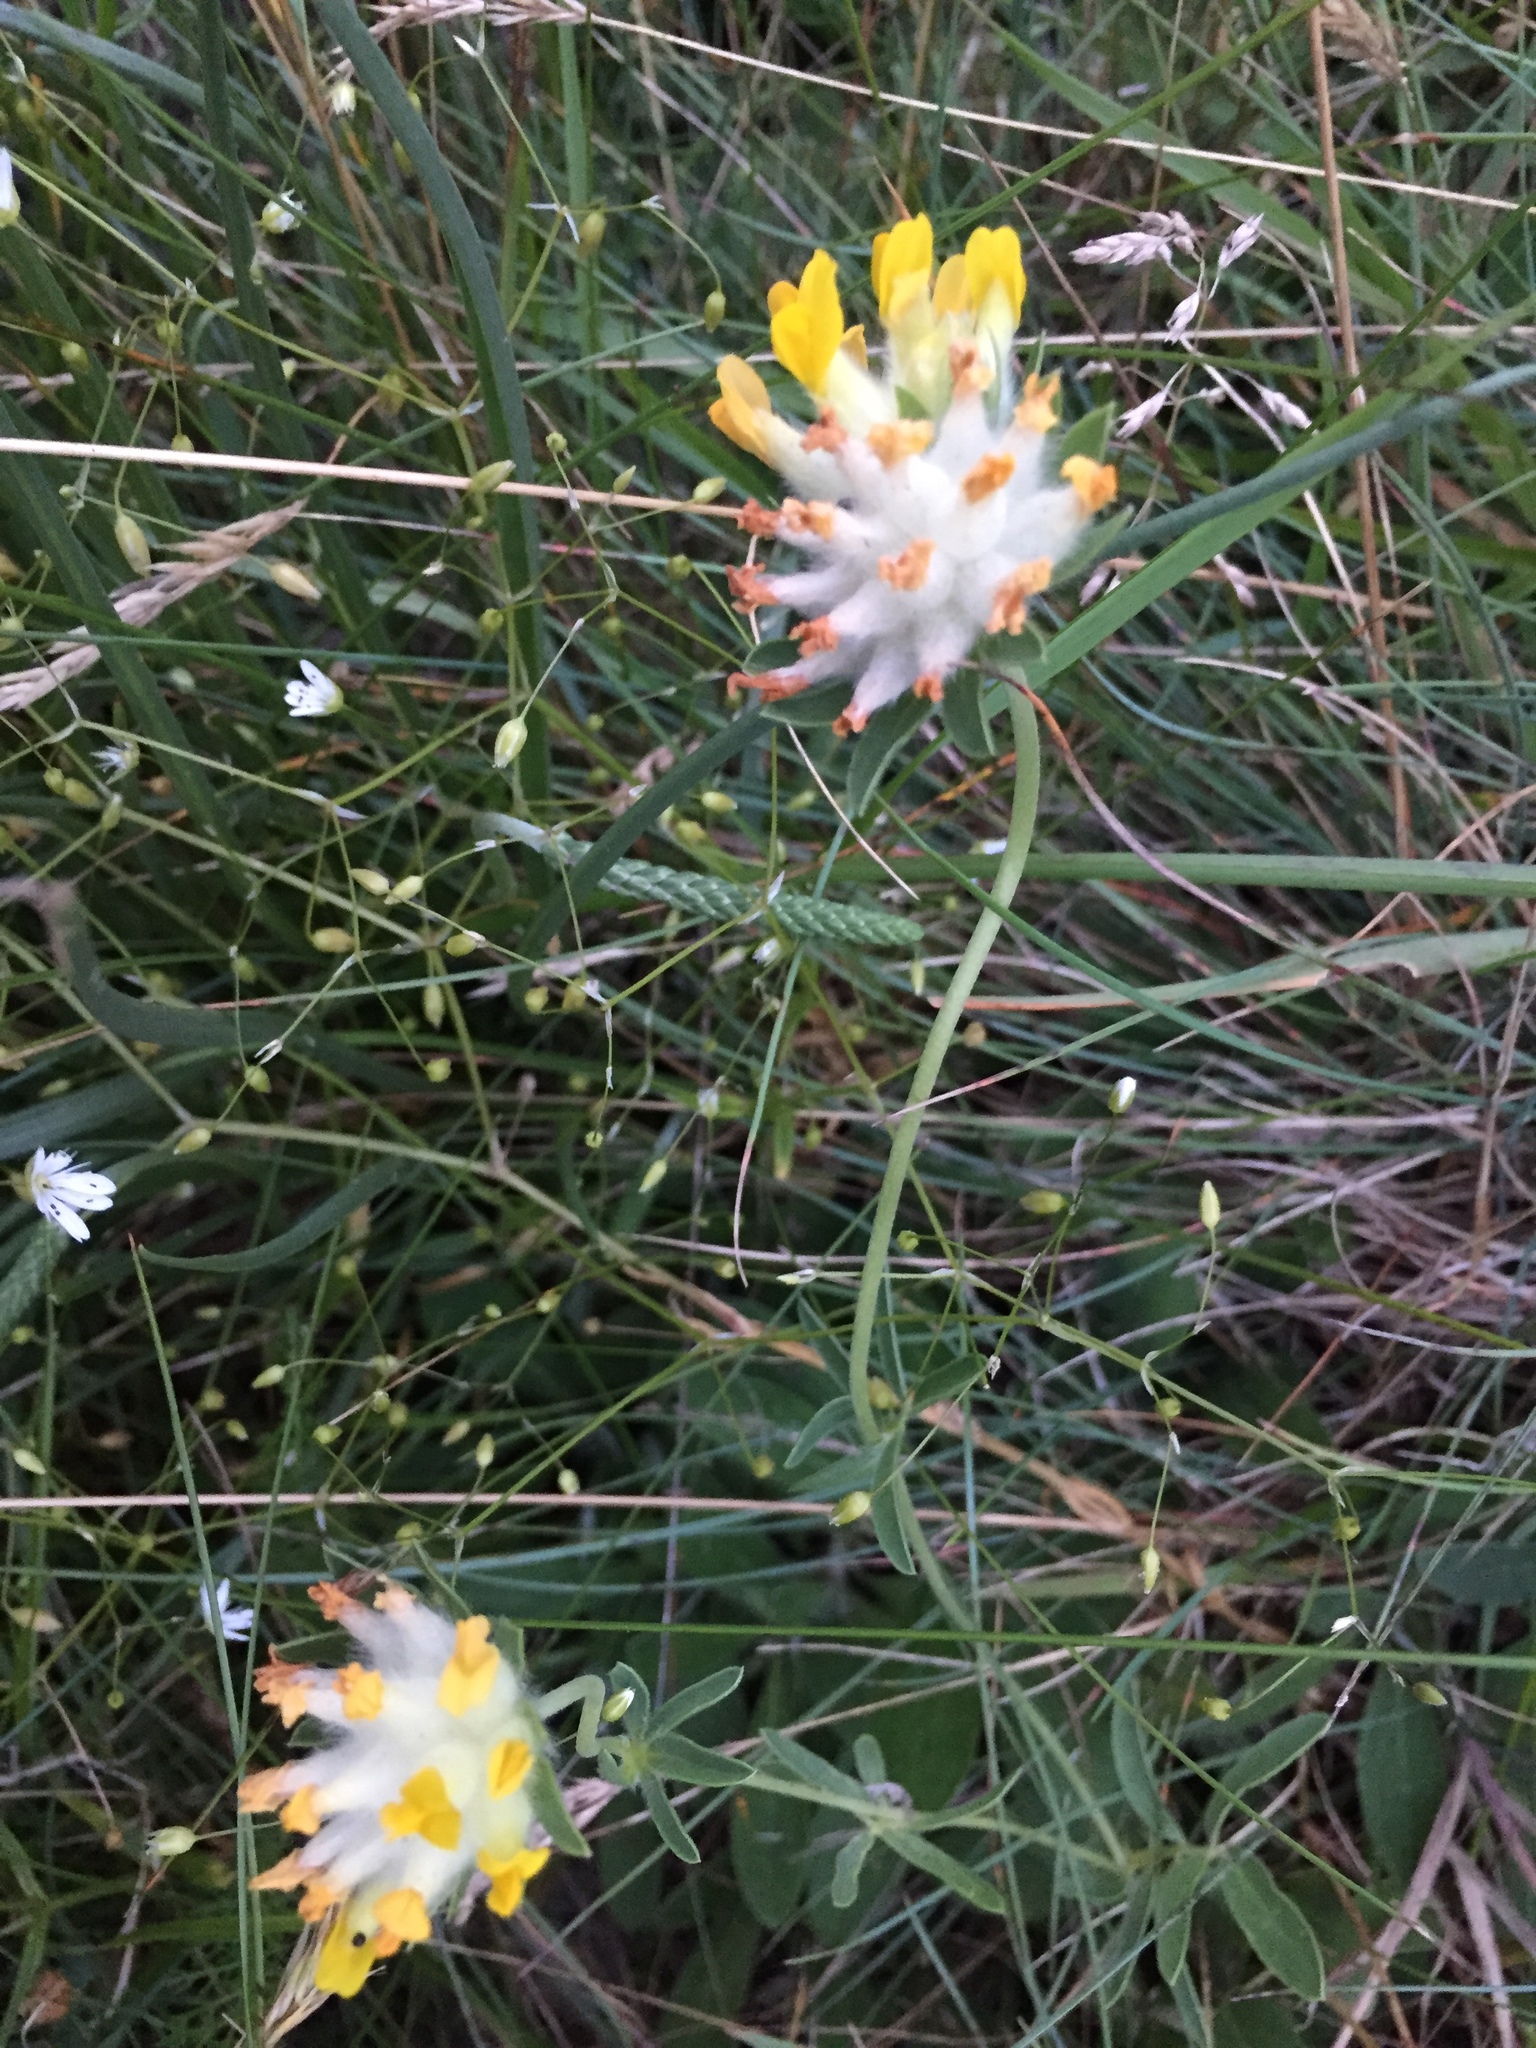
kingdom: Plantae
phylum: Tracheophyta
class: Magnoliopsida
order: Fabales
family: Fabaceae
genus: Anthyllis
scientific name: Anthyllis vulneraria
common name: Kidney vetch
